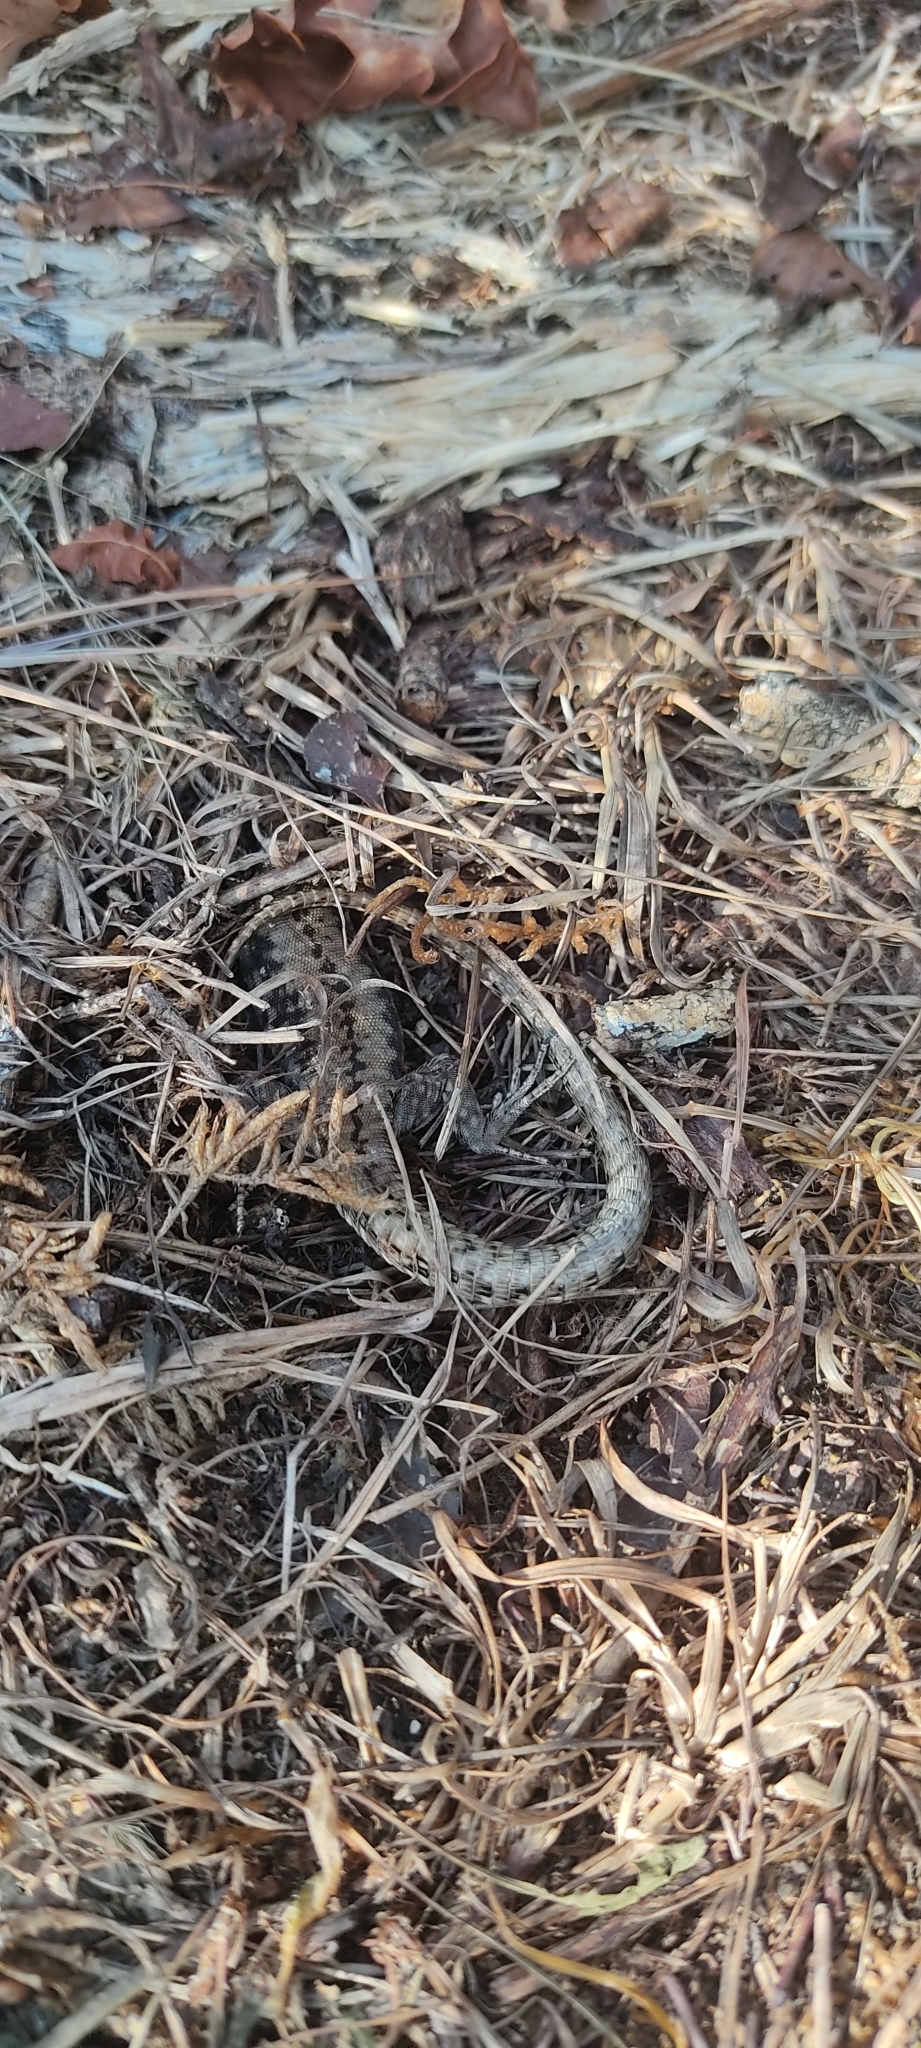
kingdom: Animalia
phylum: Chordata
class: Squamata
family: Lacertidae
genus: Podarcis
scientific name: Podarcis muralis
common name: Common wall lizard
